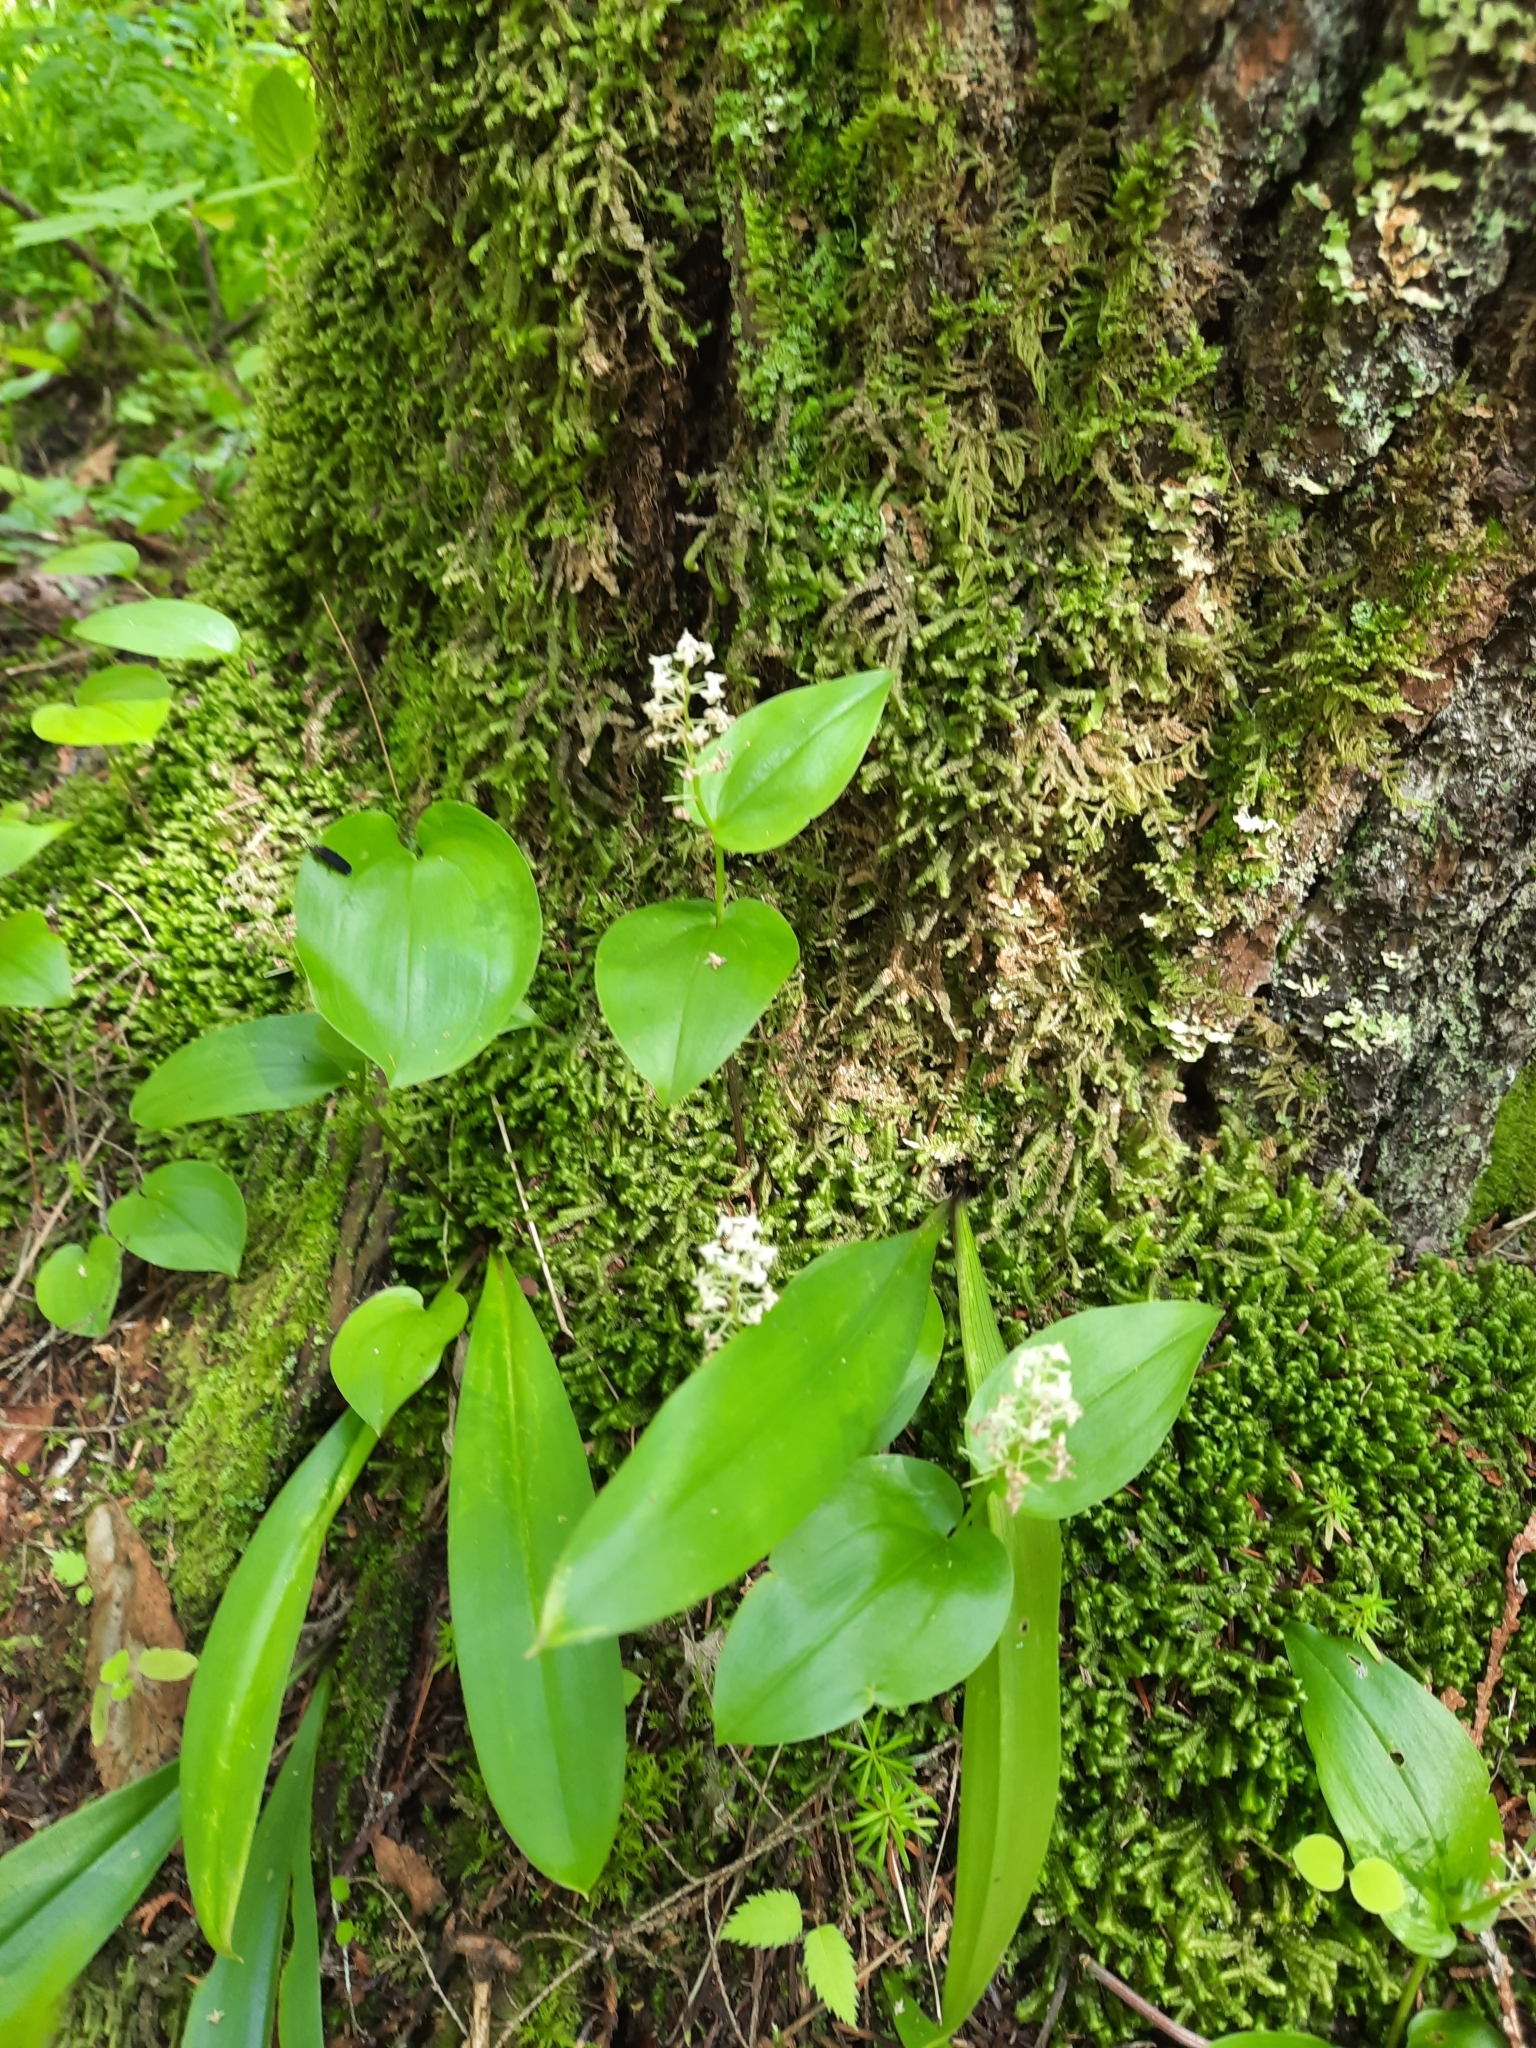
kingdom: Plantae
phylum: Tracheophyta
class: Liliopsida
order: Asparagales
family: Asparagaceae
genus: Maianthemum
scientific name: Maianthemum canadense
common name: False lily-of-the-valley
